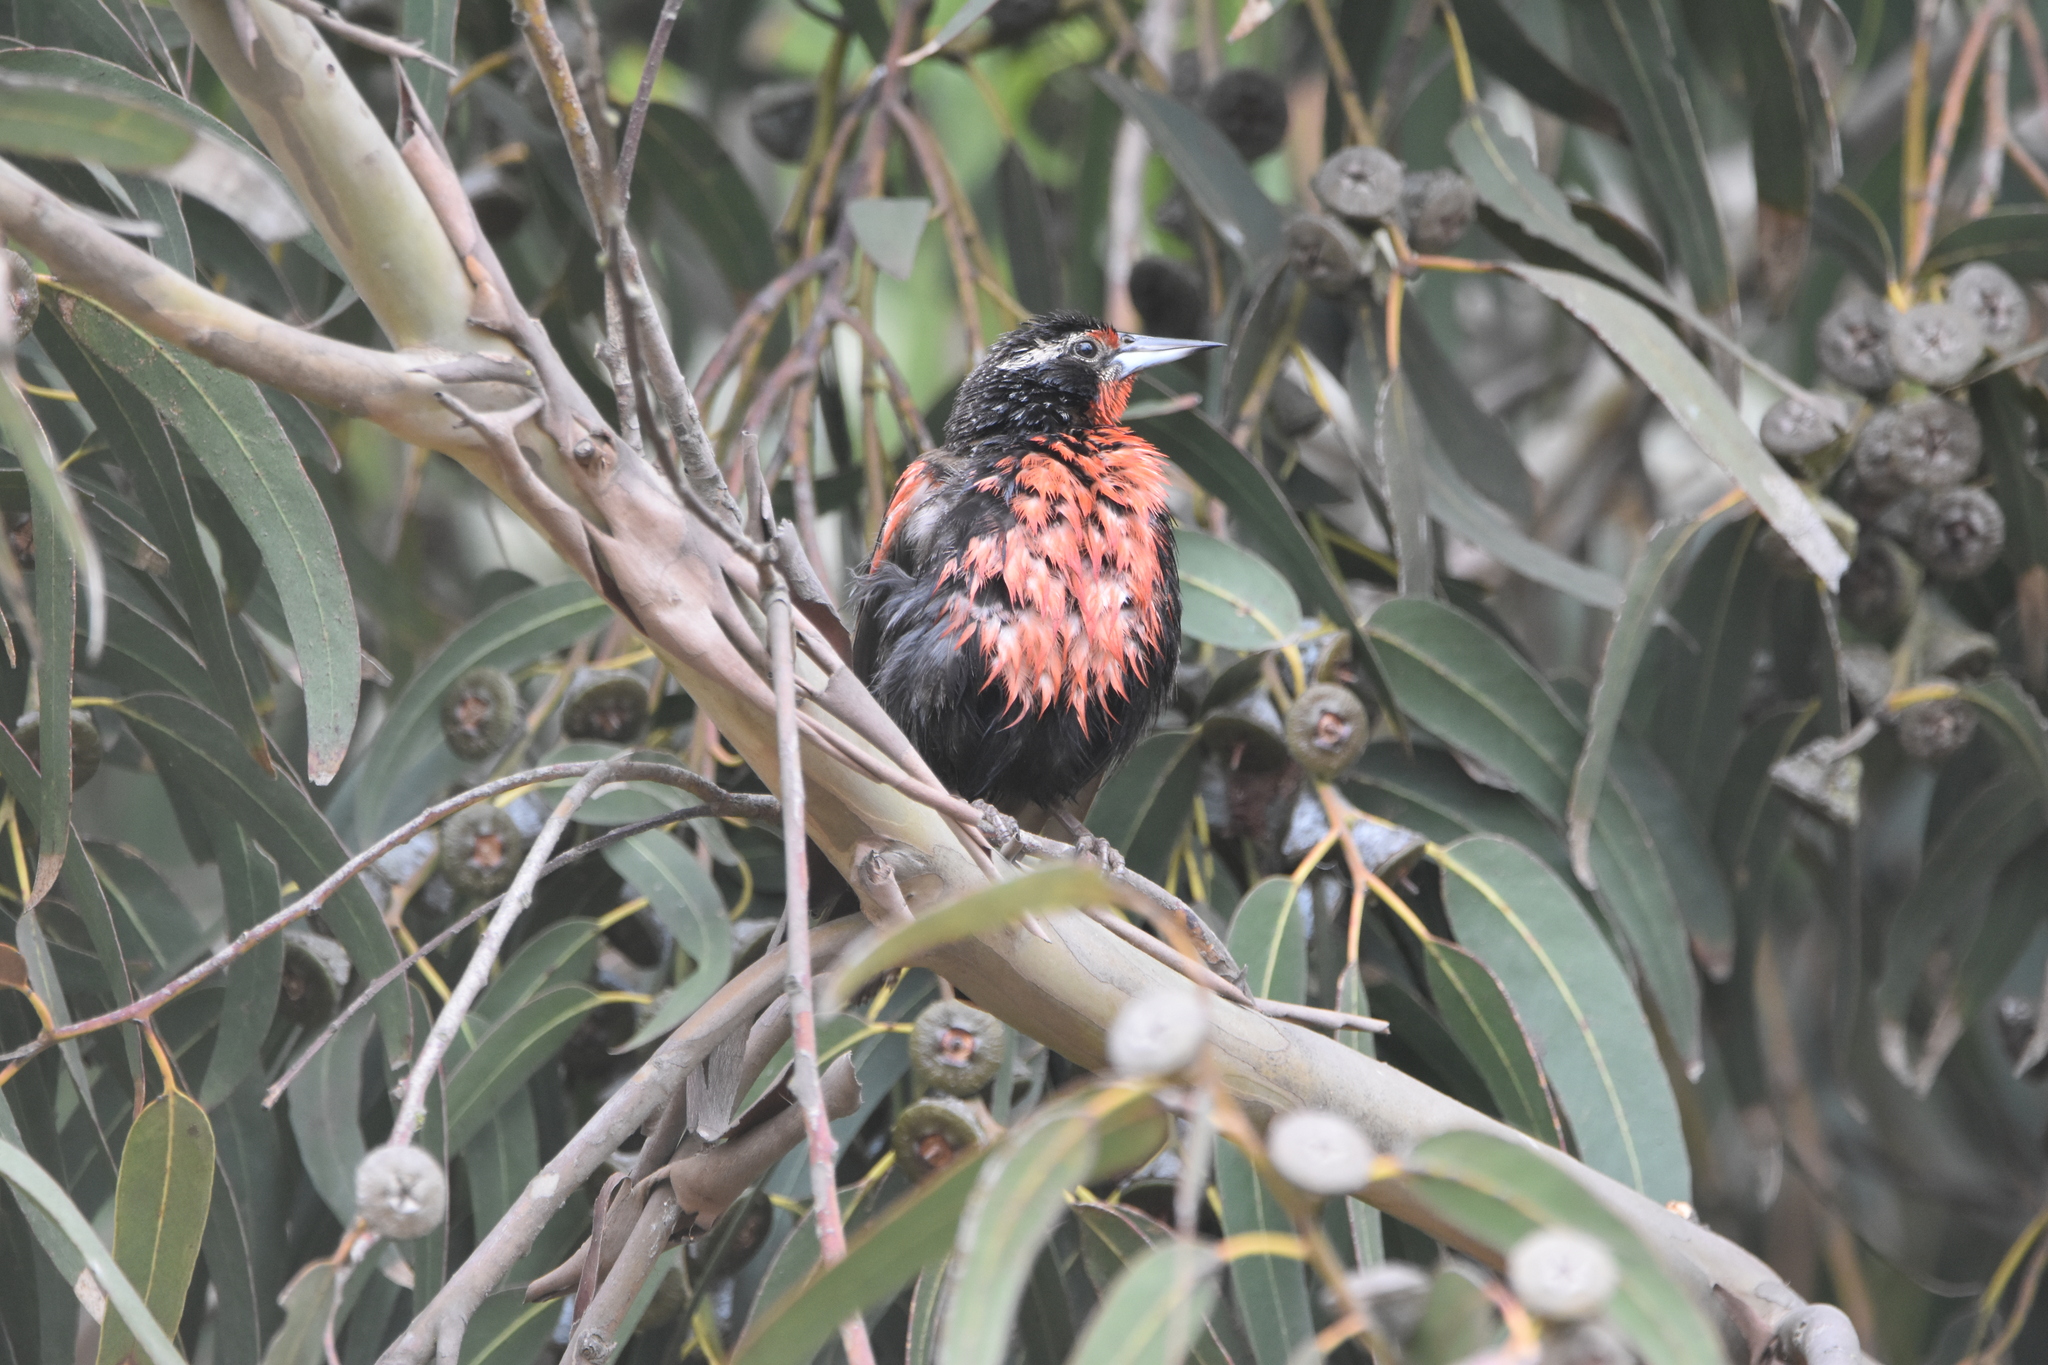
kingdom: Animalia
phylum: Chordata
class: Aves
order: Passeriformes
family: Icteridae
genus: Sturnella
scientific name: Sturnella loyca
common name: Long-tailed meadowlark
